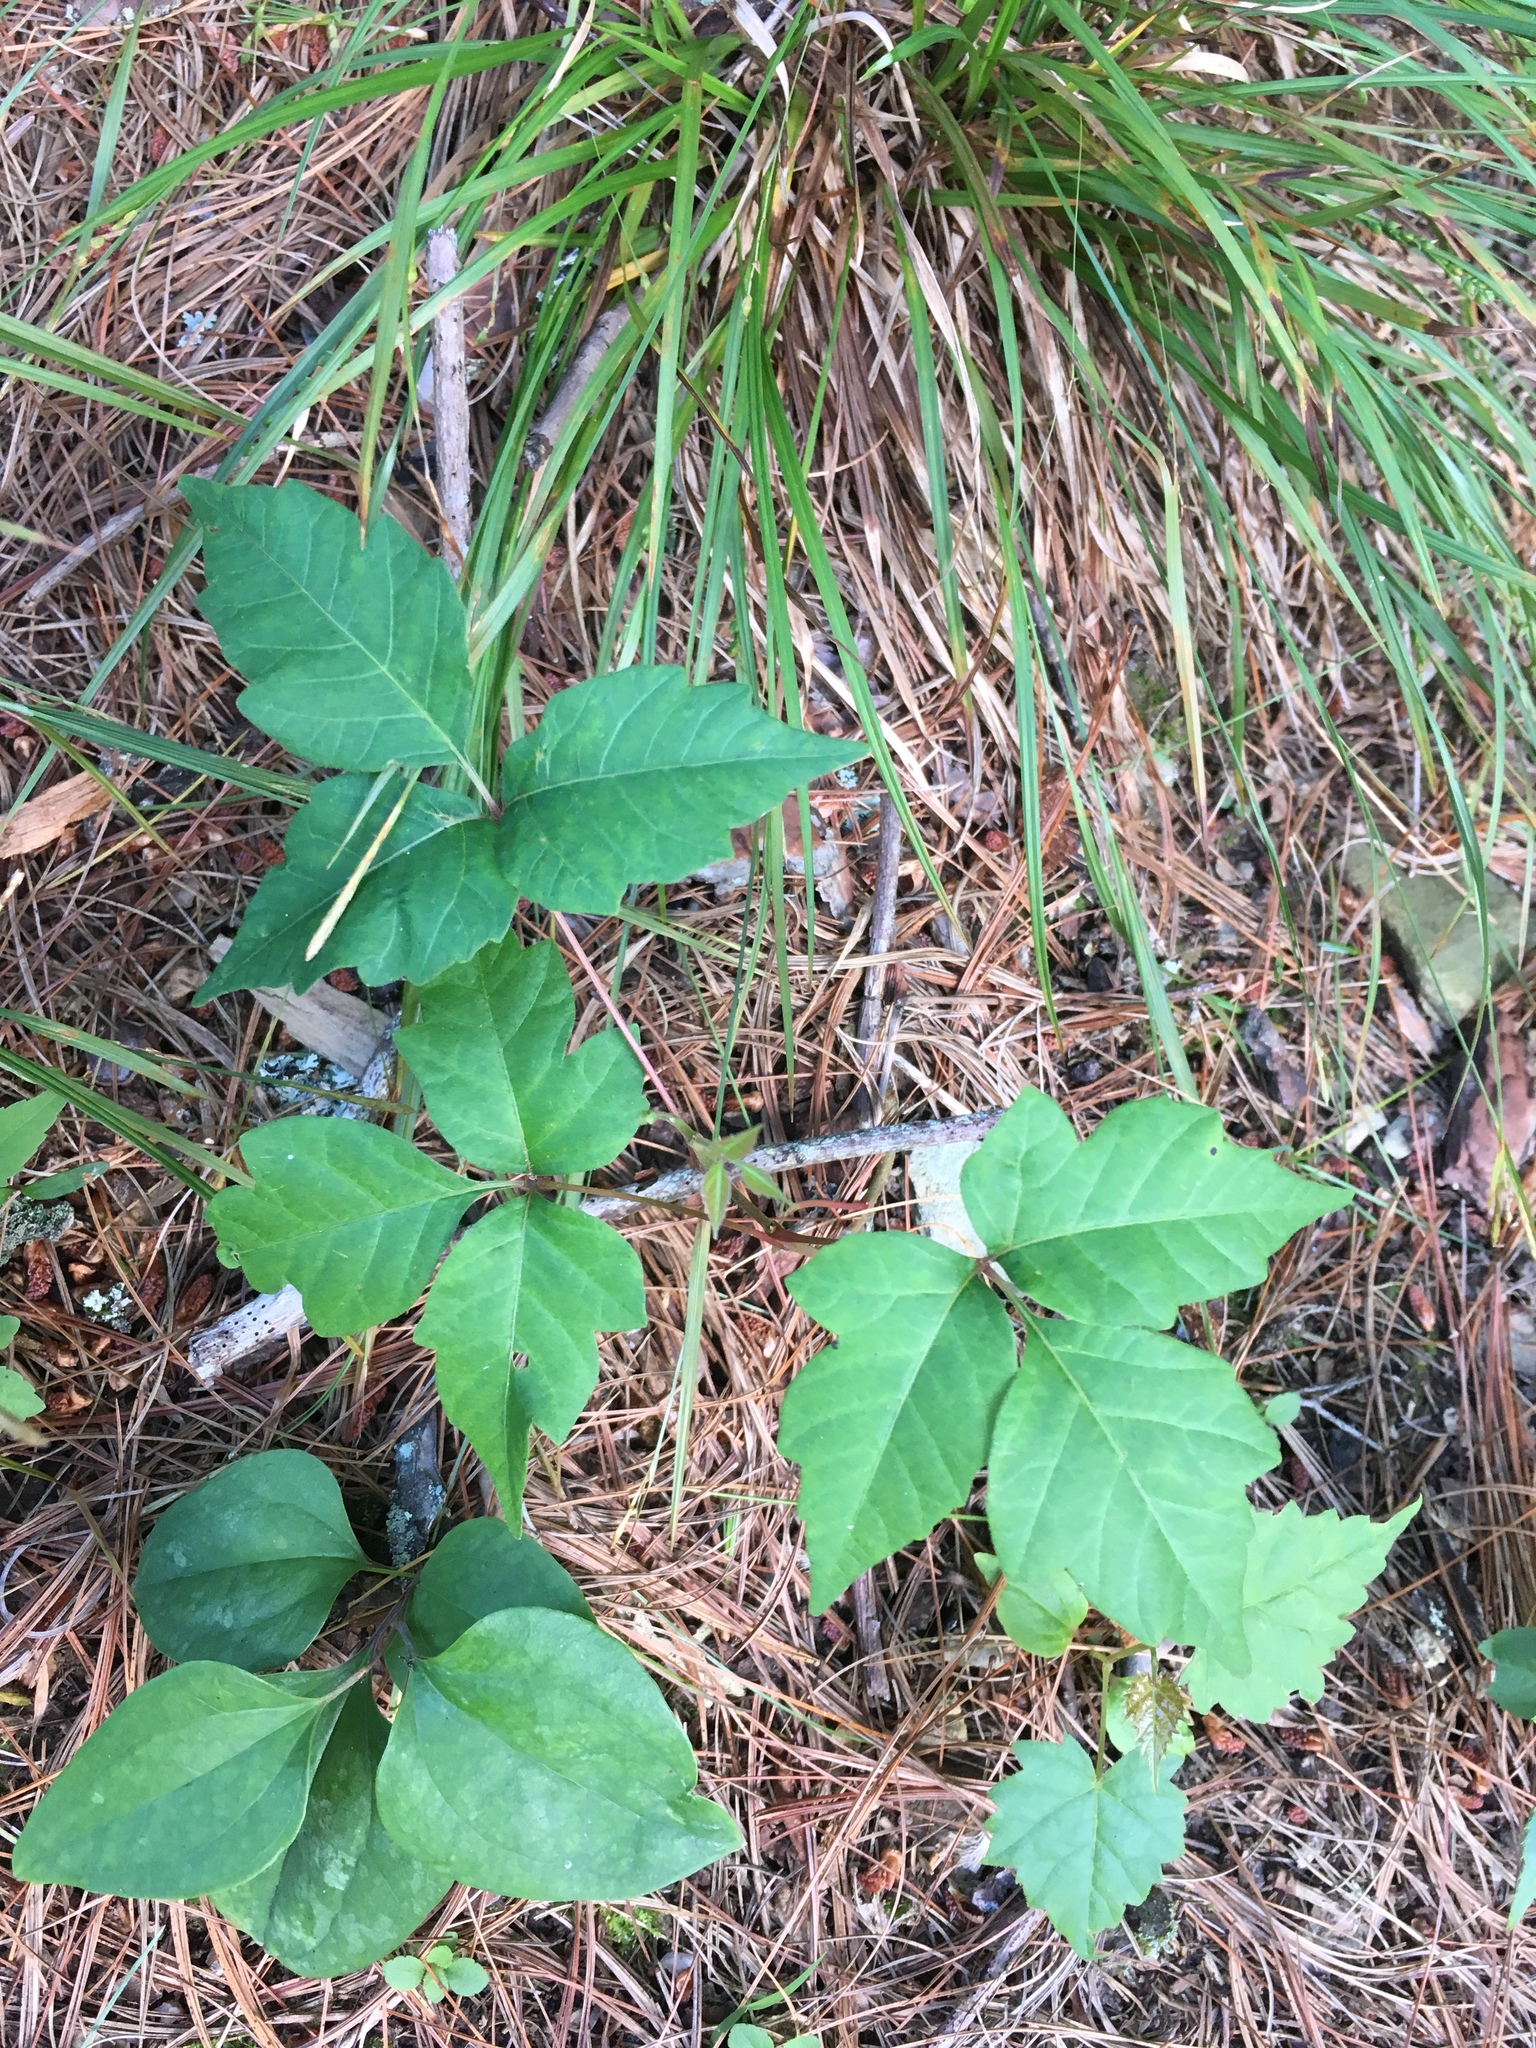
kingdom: Plantae
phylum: Tracheophyta
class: Magnoliopsida
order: Sapindales
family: Anacardiaceae
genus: Toxicodendron
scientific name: Toxicodendron radicans
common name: Poison ivy
